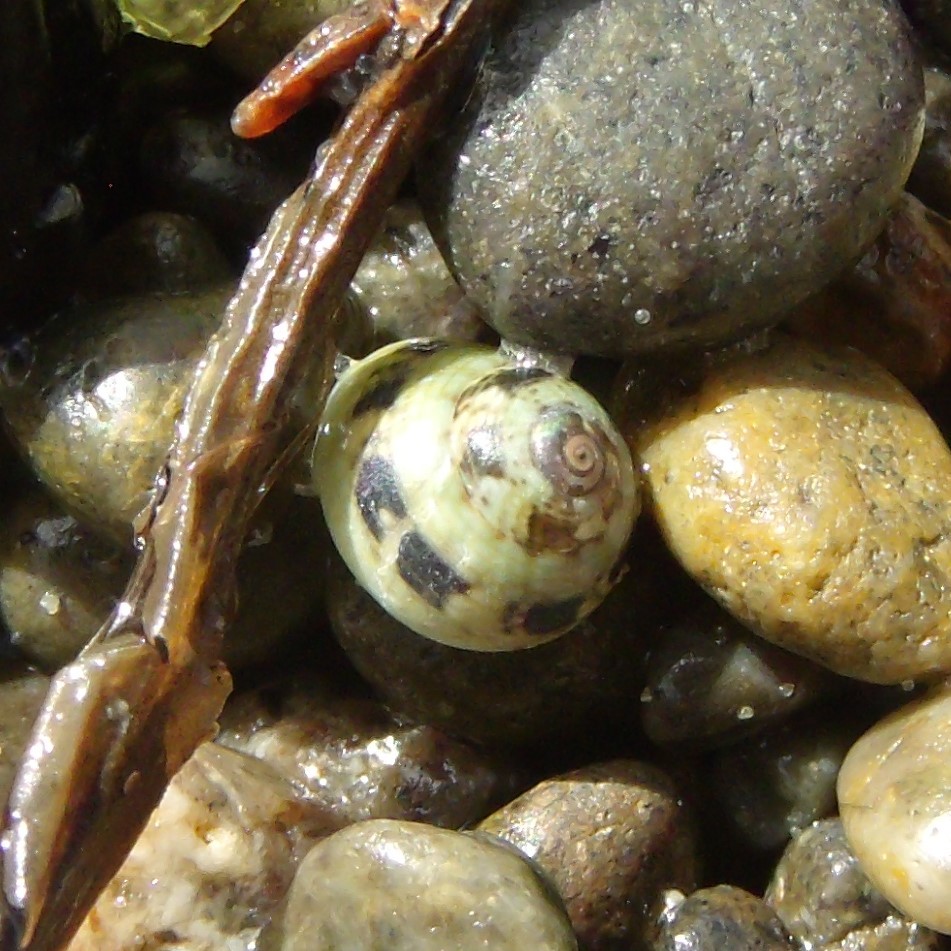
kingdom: Animalia
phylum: Mollusca
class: Gastropoda
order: Trochida
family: Trochidae
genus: Micrelenchus
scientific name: Micrelenchus tessellatus
